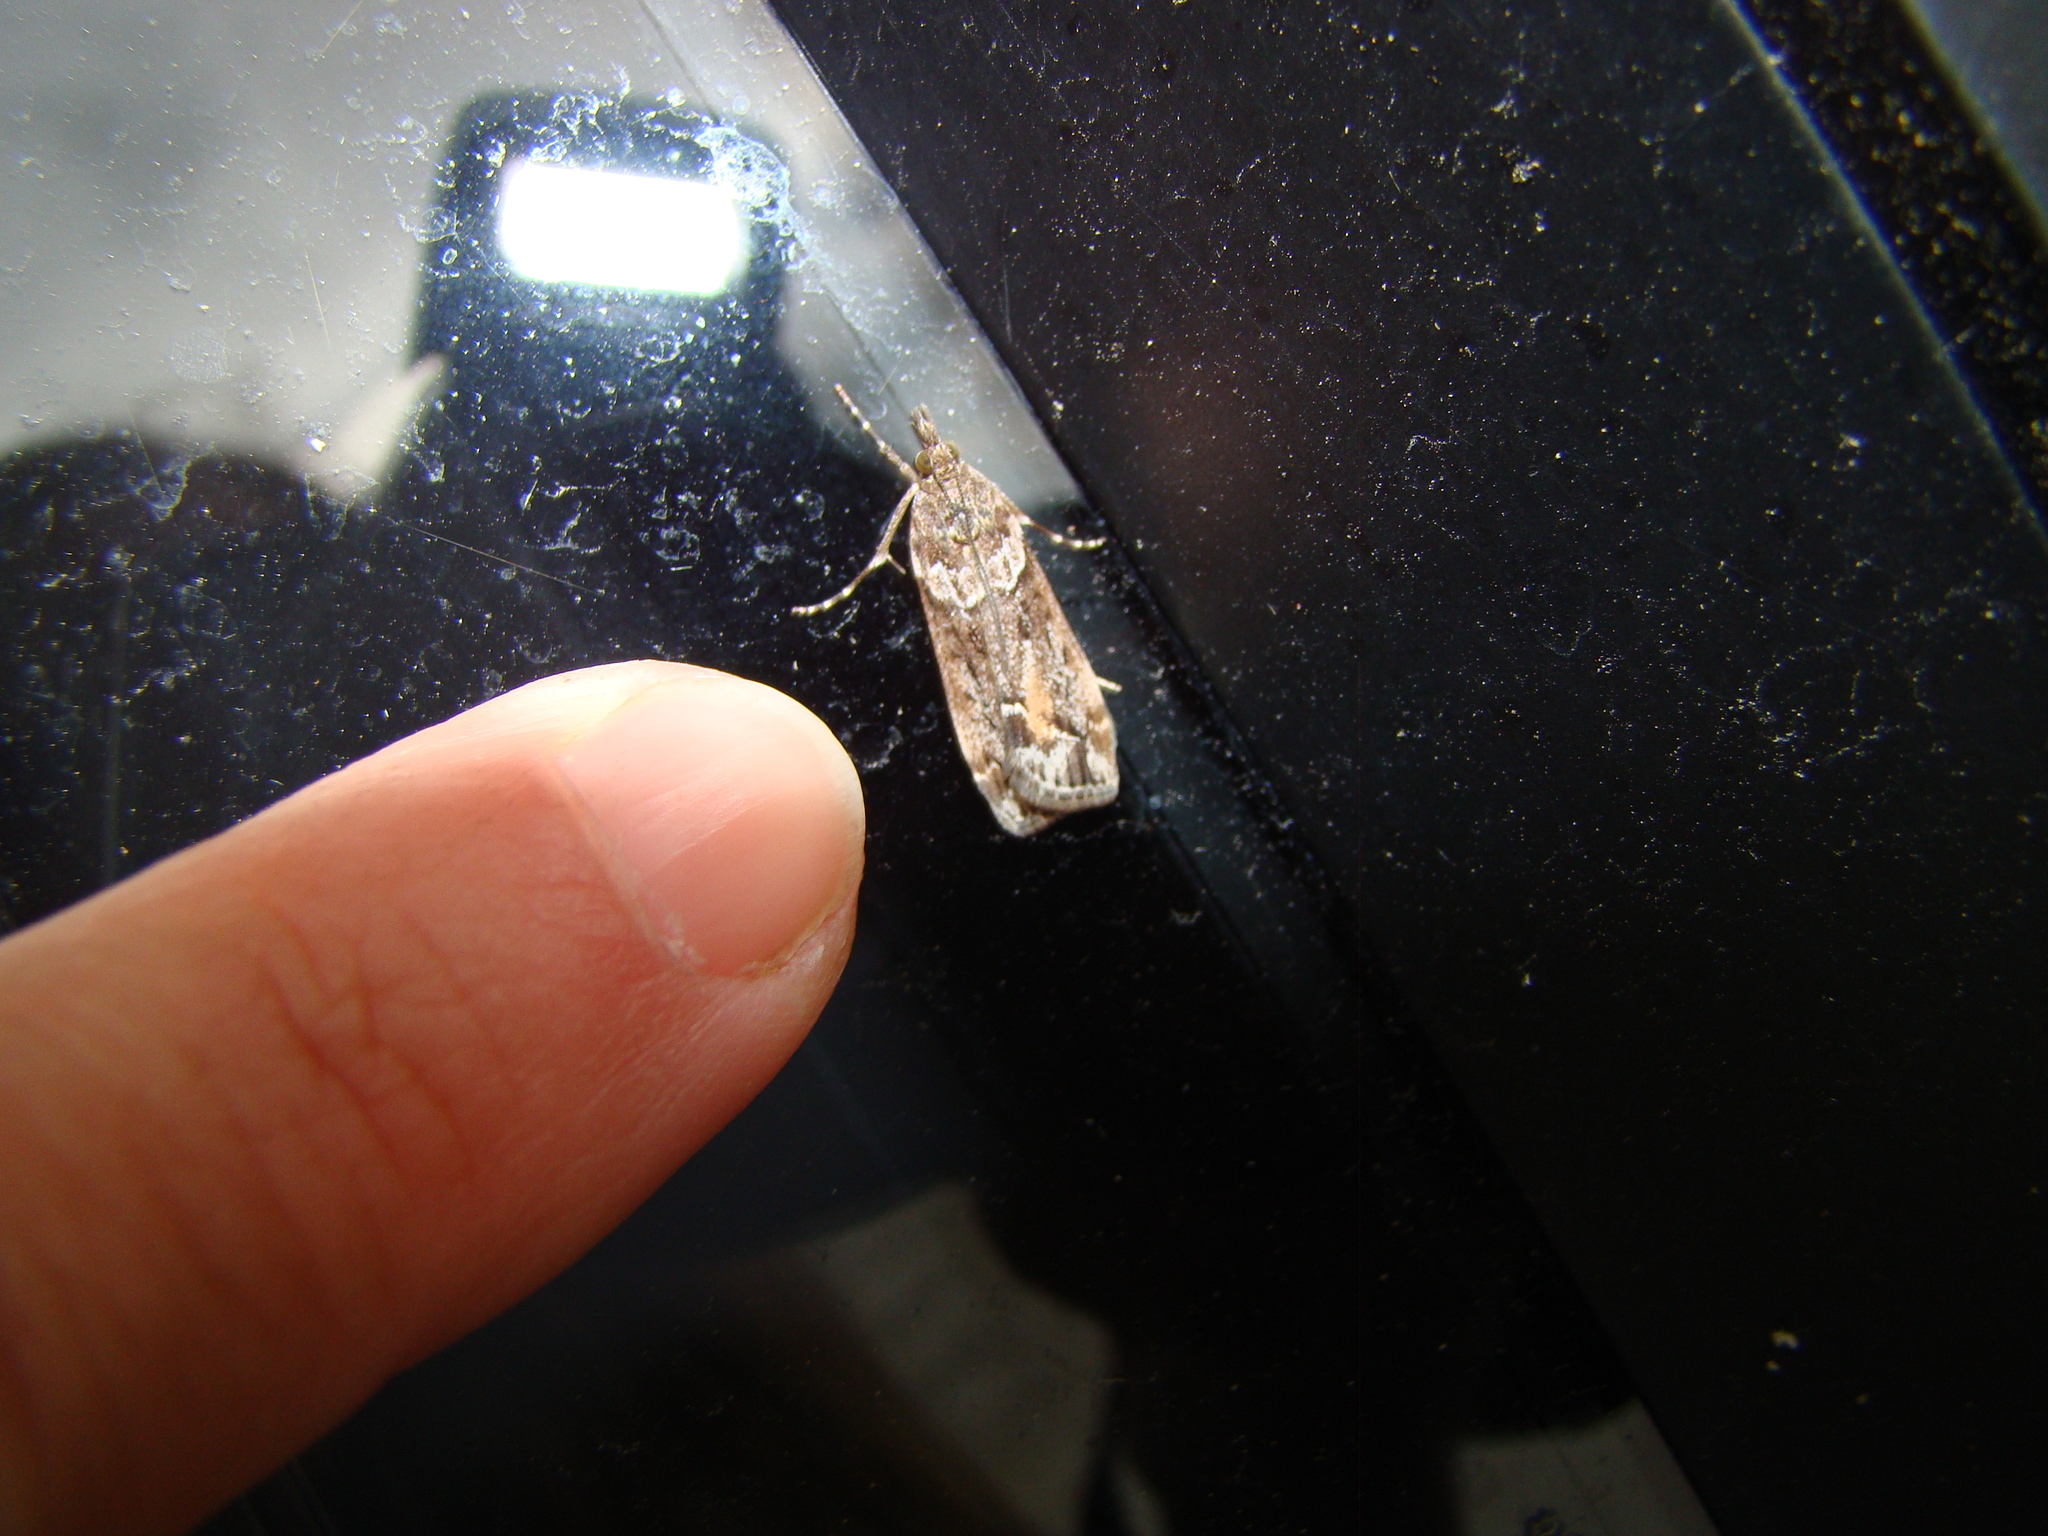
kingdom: Animalia
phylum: Arthropoda
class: Insecta
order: Lepidoptera
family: Crambidae
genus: Eudonia
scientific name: Eudonia submarginalis
